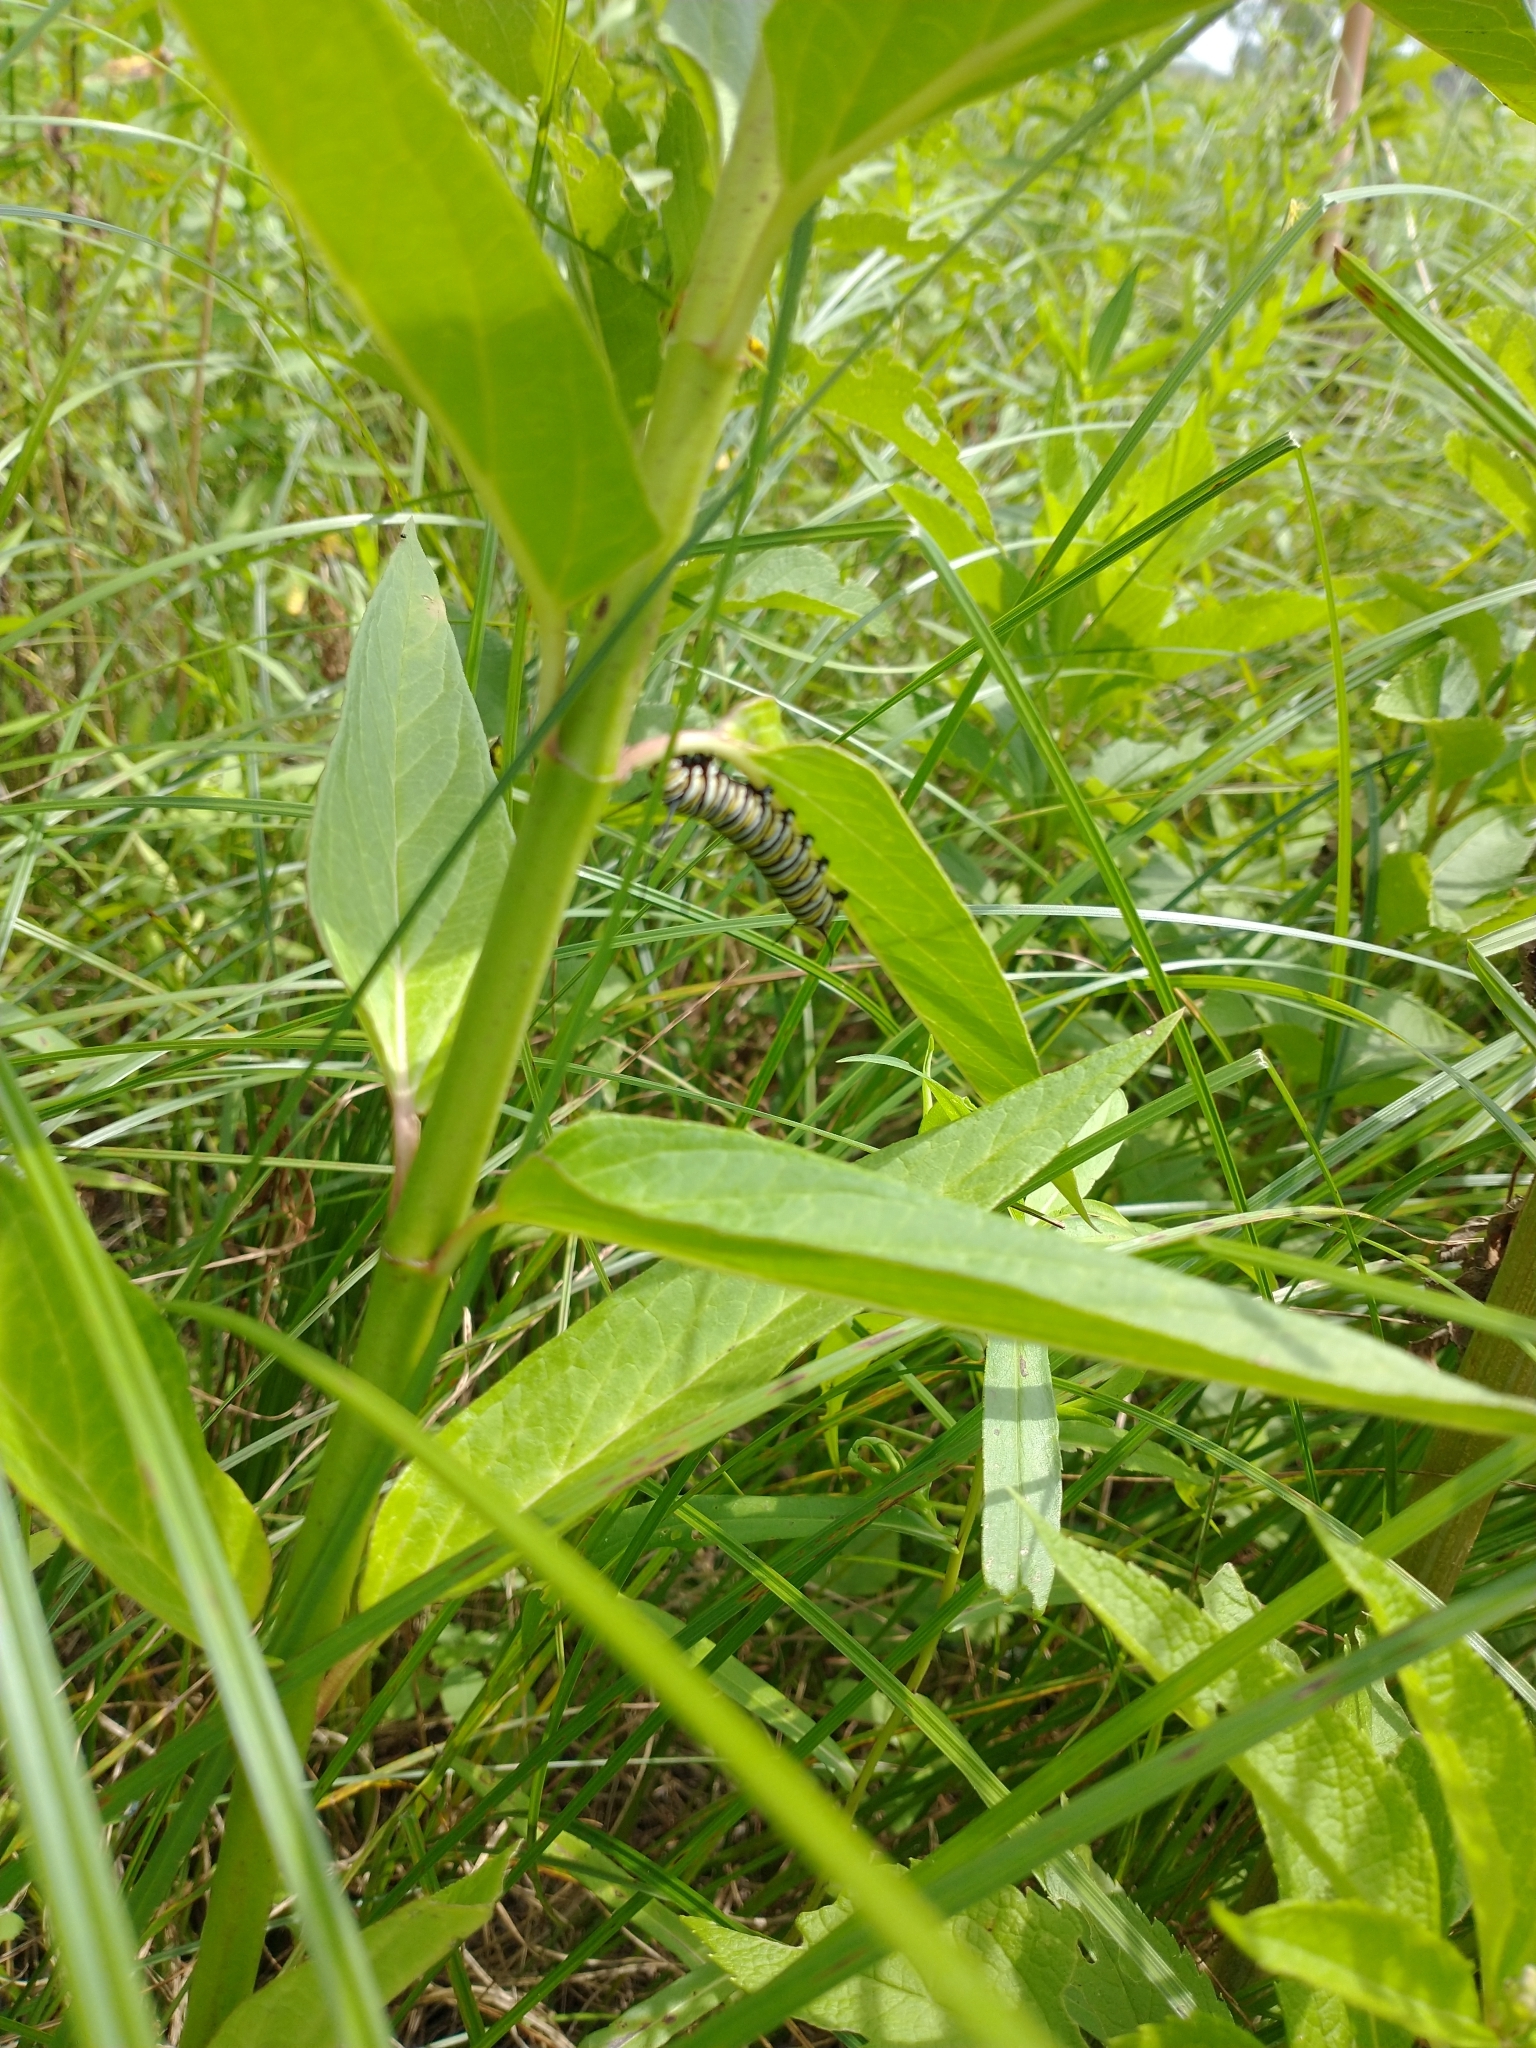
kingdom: Plantae
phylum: Tracheophyta
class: Magnoliopsida
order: Gentianales
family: Apocynaceae
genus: Asclepias
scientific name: Asclepias incarnata
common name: Swamp milkweed
